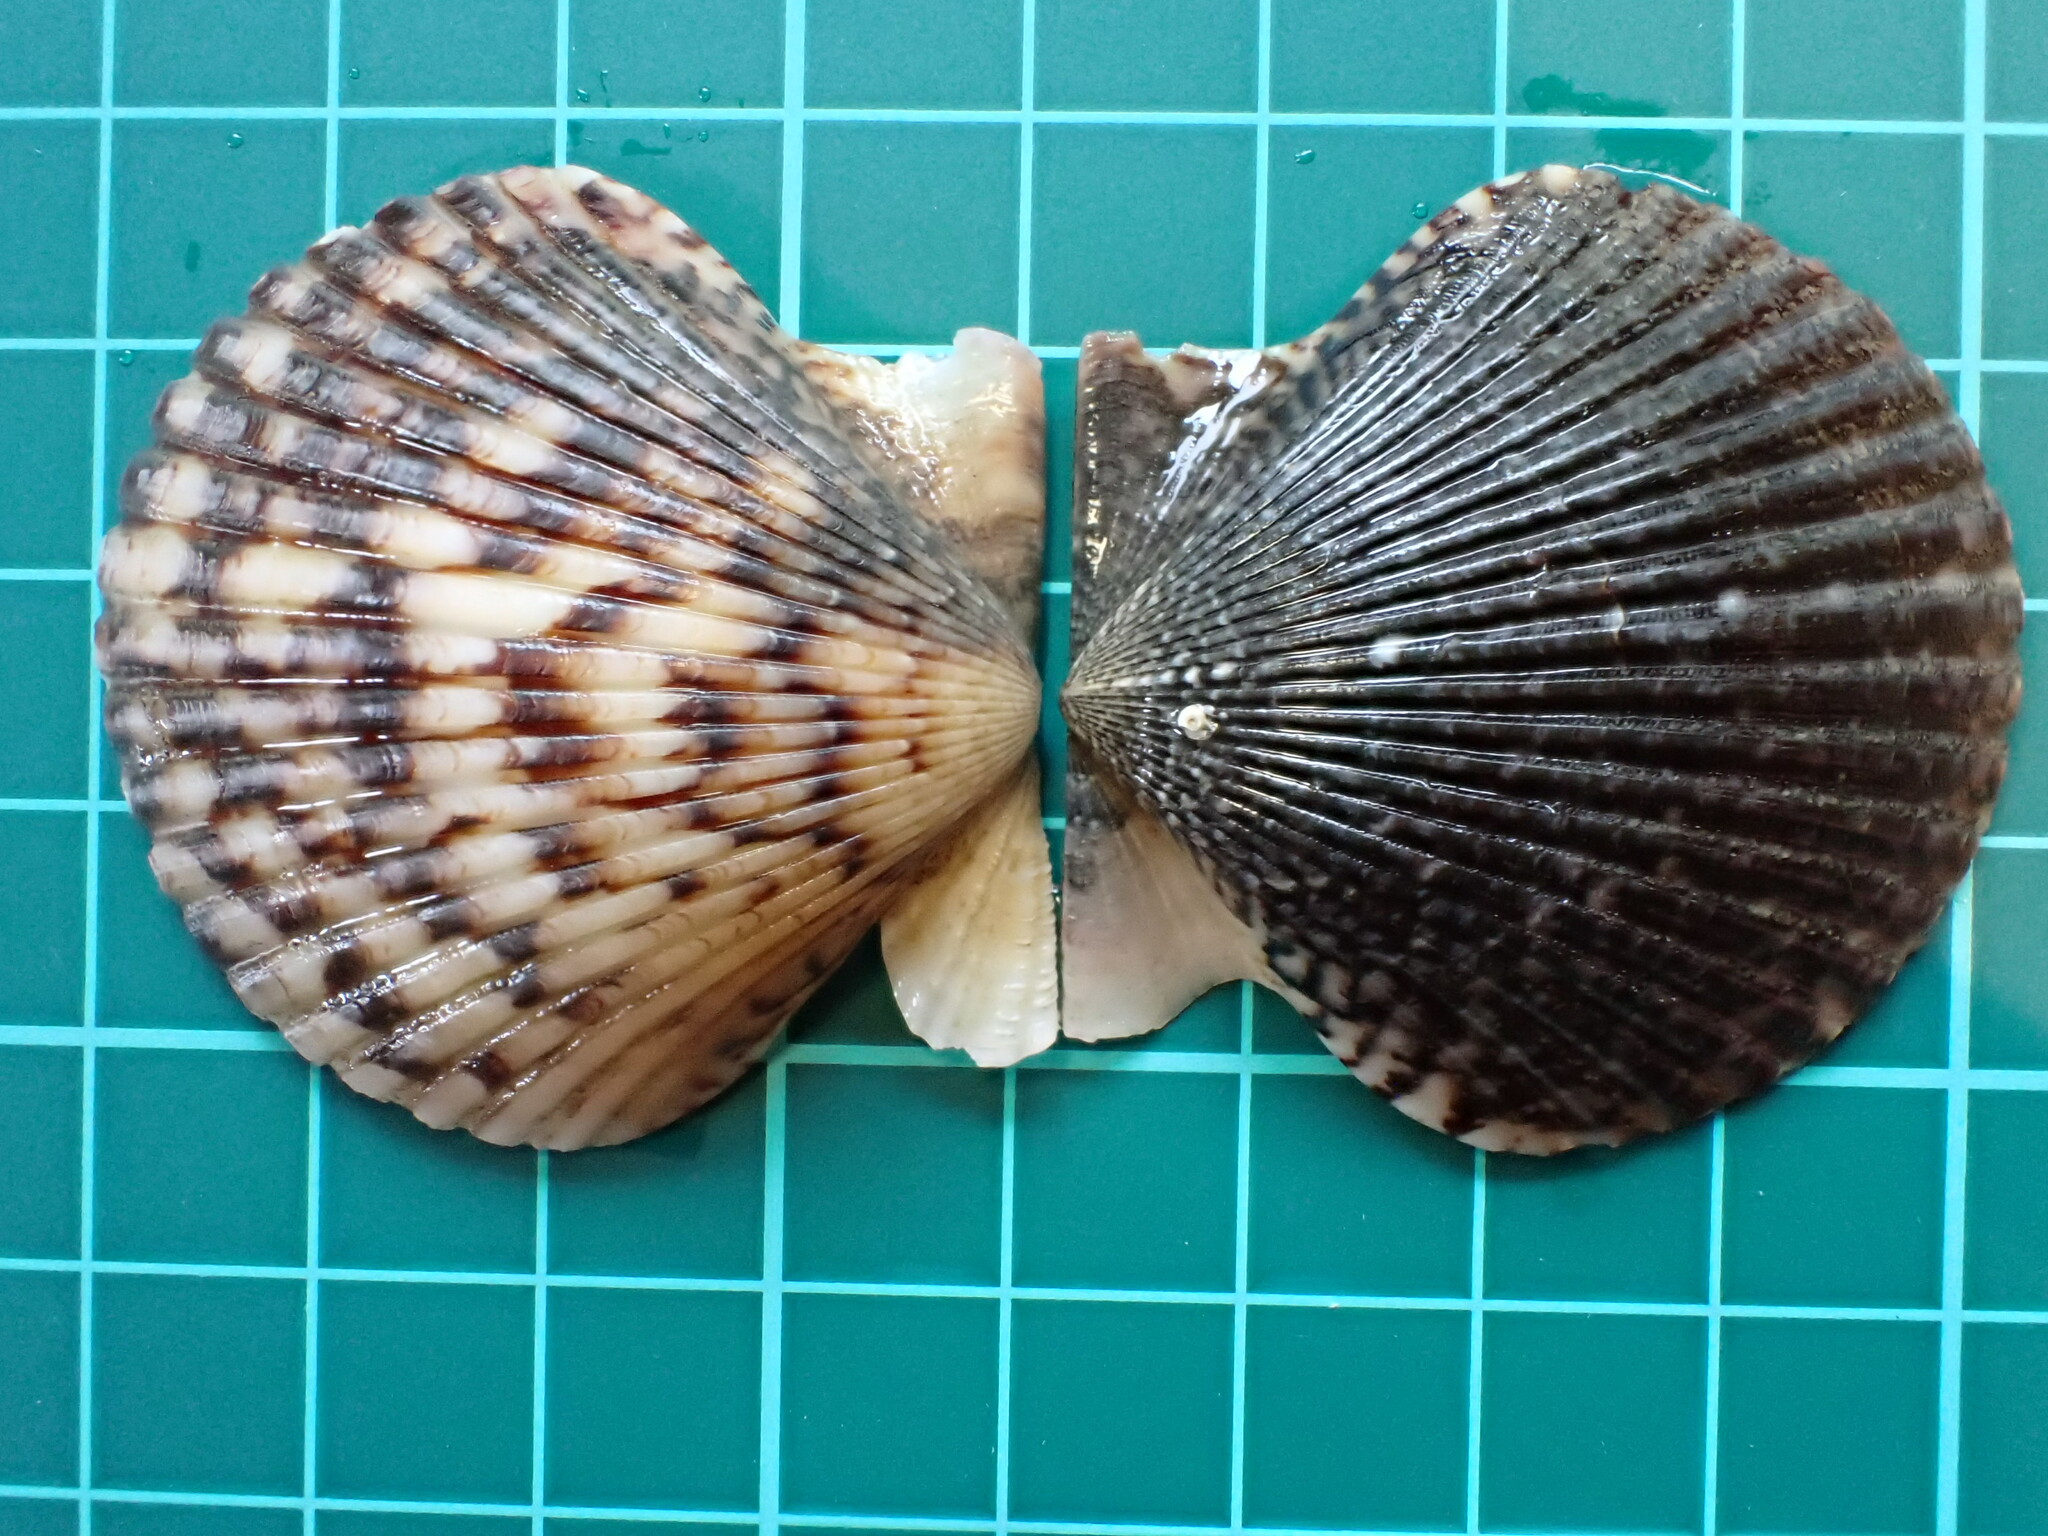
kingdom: Animalia
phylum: Mollusca
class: Bivalvia
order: Pectinida
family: Pectinidae
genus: Argopecten
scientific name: Argopecten ventricosus
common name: Catarina scallop
